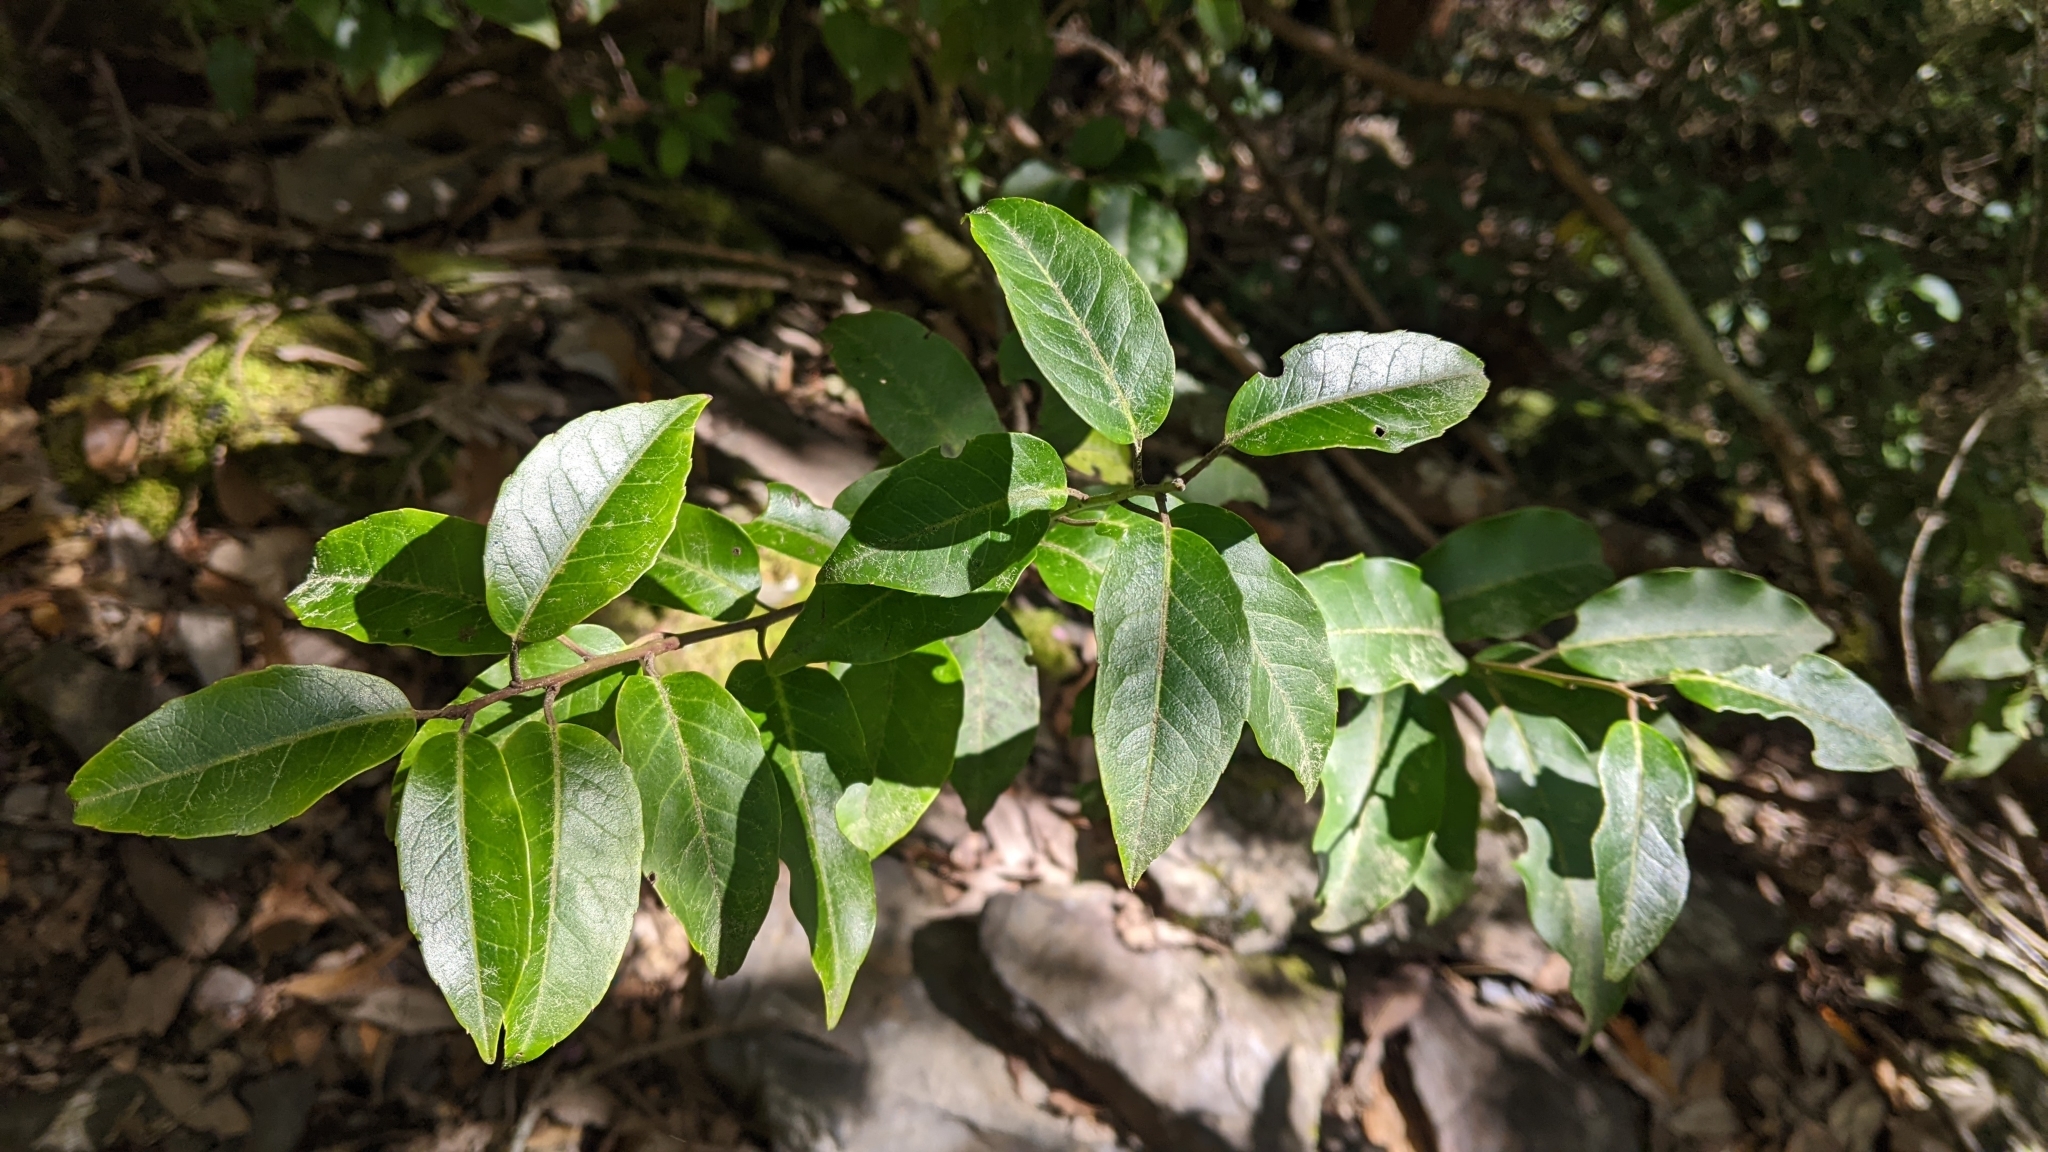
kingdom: Plantae
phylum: Tracheophyta
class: Magnoliopsida
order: Aquifoliales
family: Aquifoliaceae
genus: Ilex
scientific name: Ilex pedunculosa
